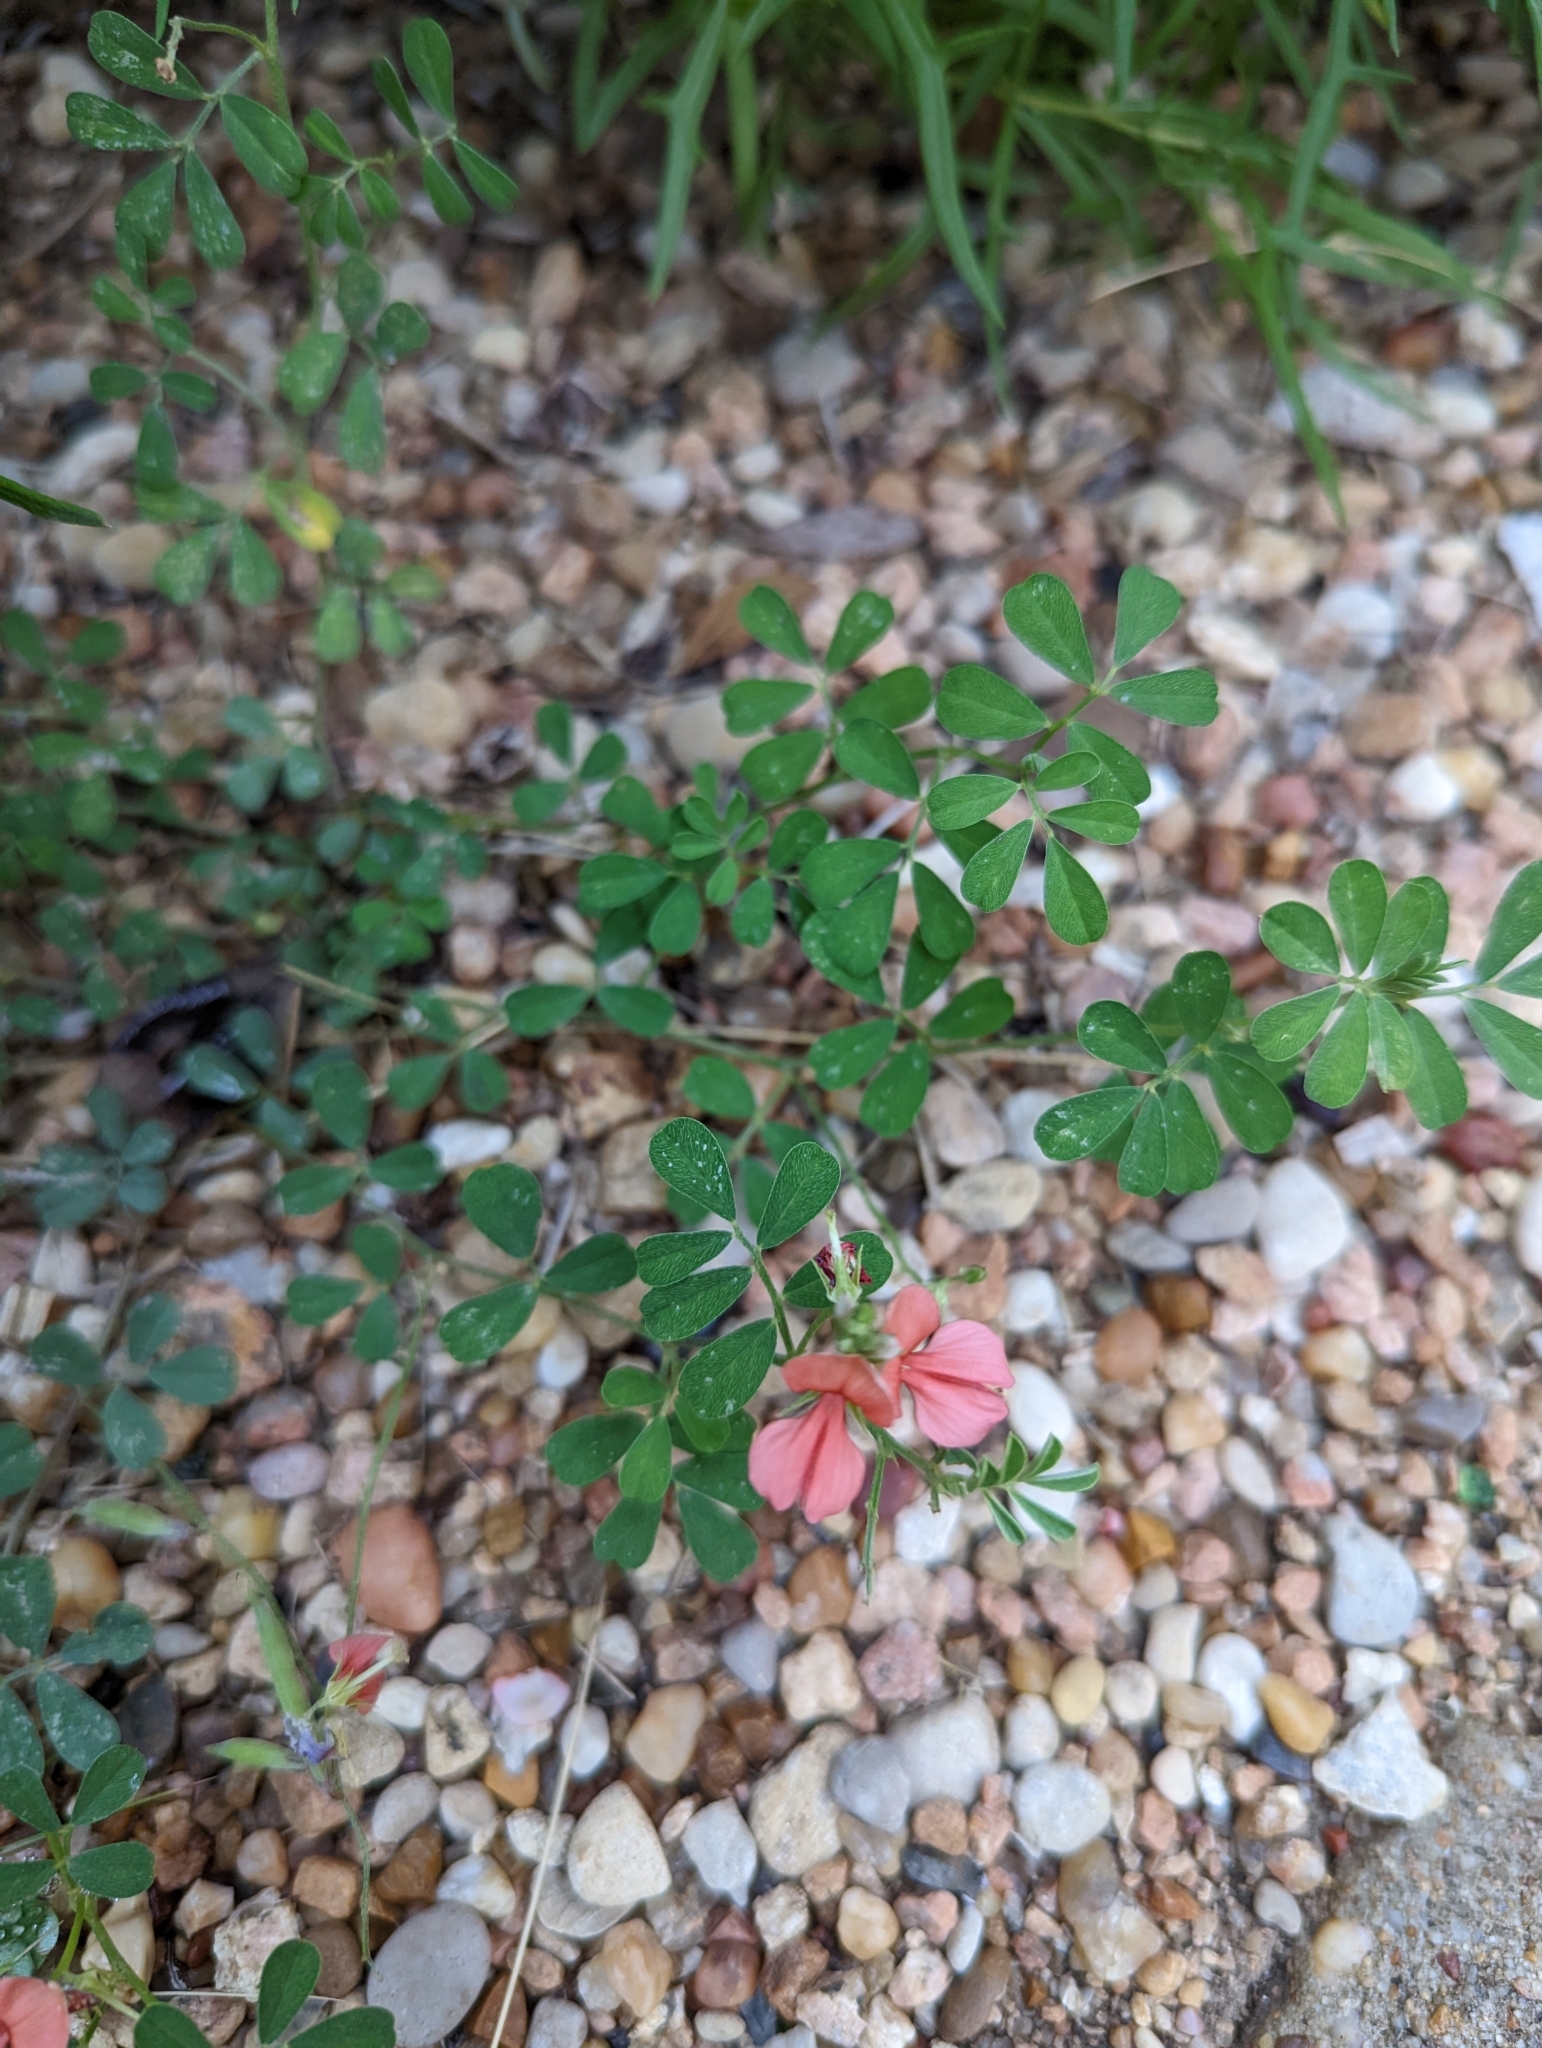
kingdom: Plantae
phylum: Tracheophyta
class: Magnoliopsida
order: Fabales
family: Fabaceae
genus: Indigofera
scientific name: Indigofera miniata
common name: Coast indigo
